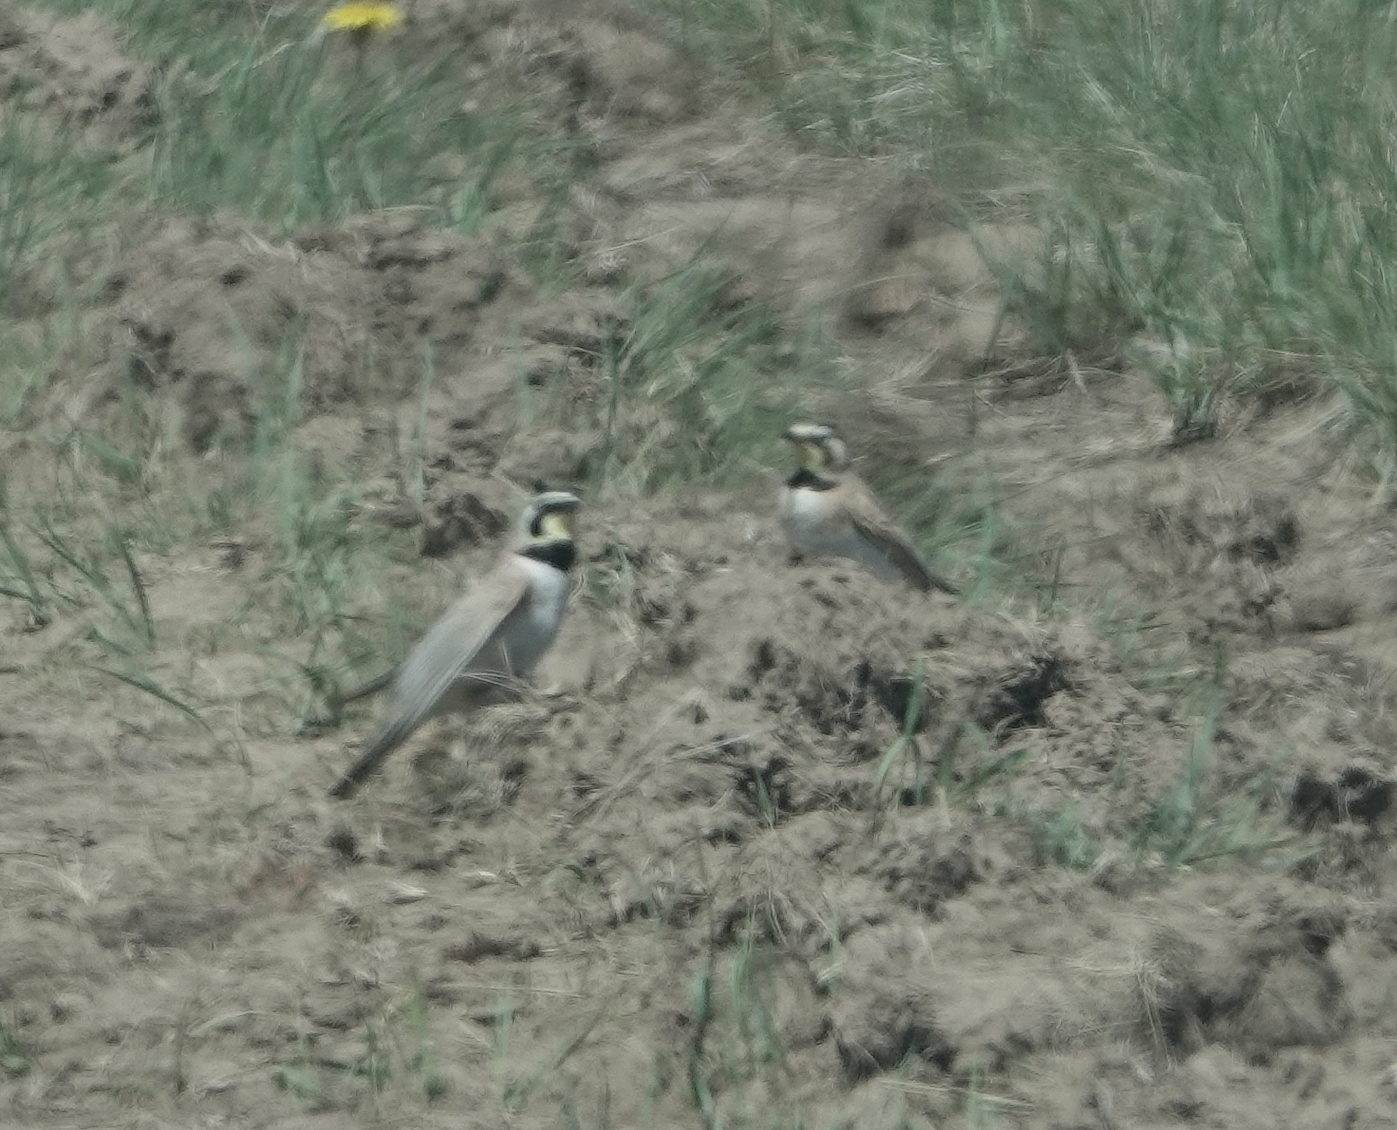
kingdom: Animalia
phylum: Chordata
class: Aves
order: Passeriformes
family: Alaudidae
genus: Eremophila
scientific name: Eremophila alpestris
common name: Horned lark
